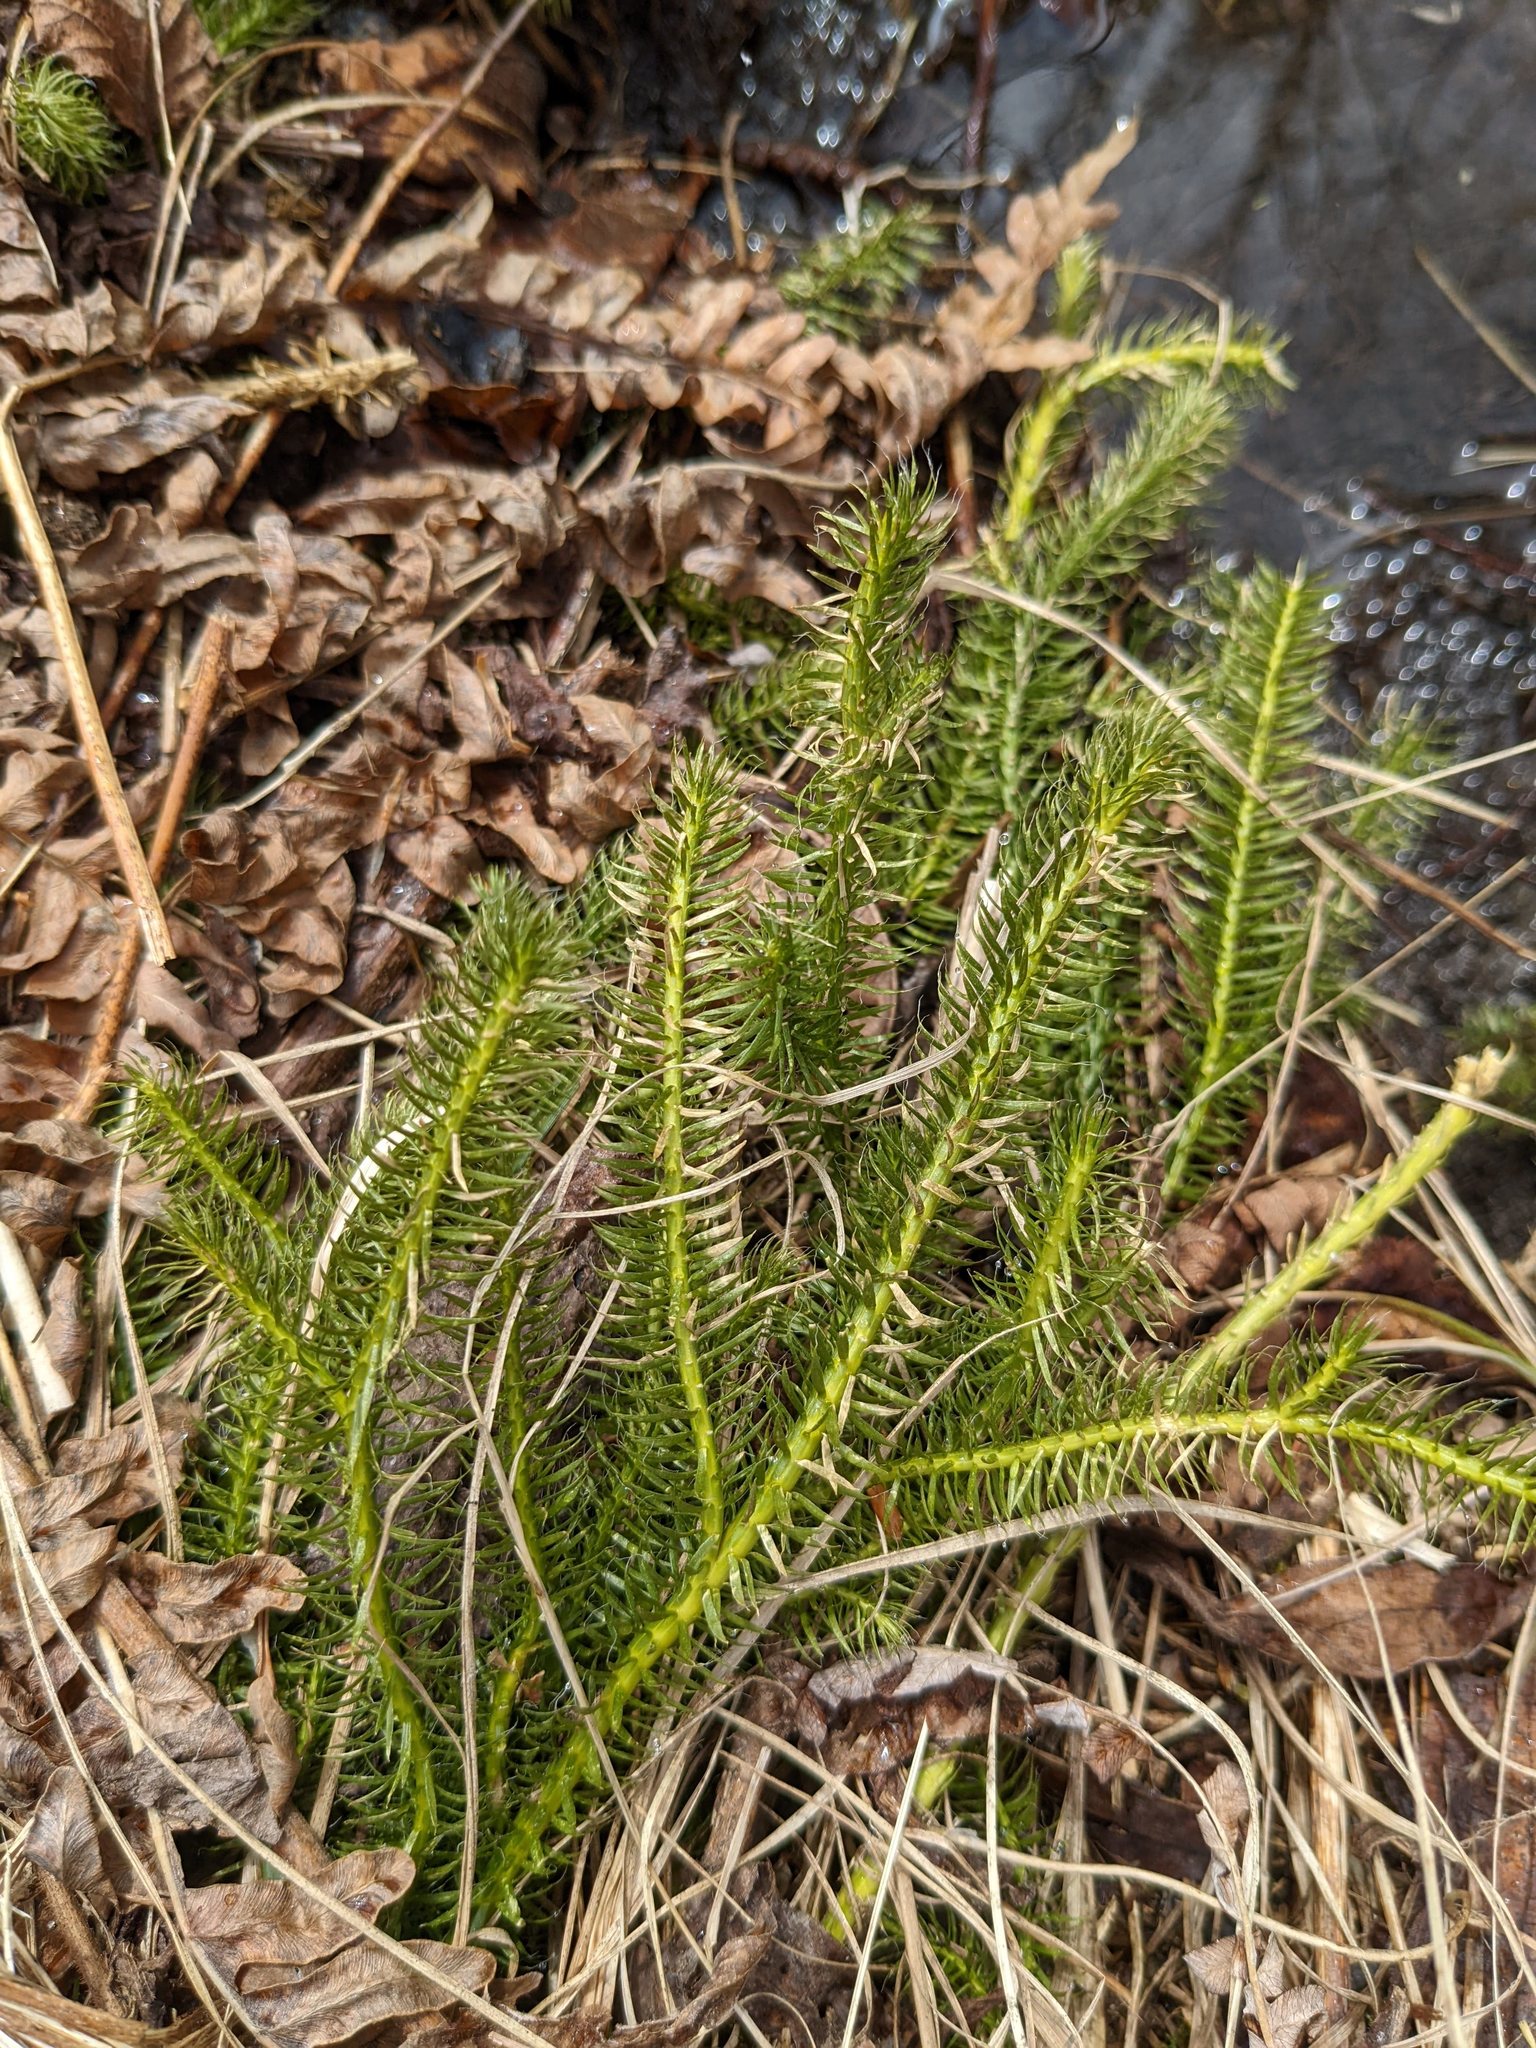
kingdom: Plantae
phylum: Tracheophyta
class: Lycopodiopsida
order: Lycopodiales
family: Lycopodiaceae
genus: Lycopodium
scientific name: Lycopodium clavatum
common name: Stag's-horn clubmoss
